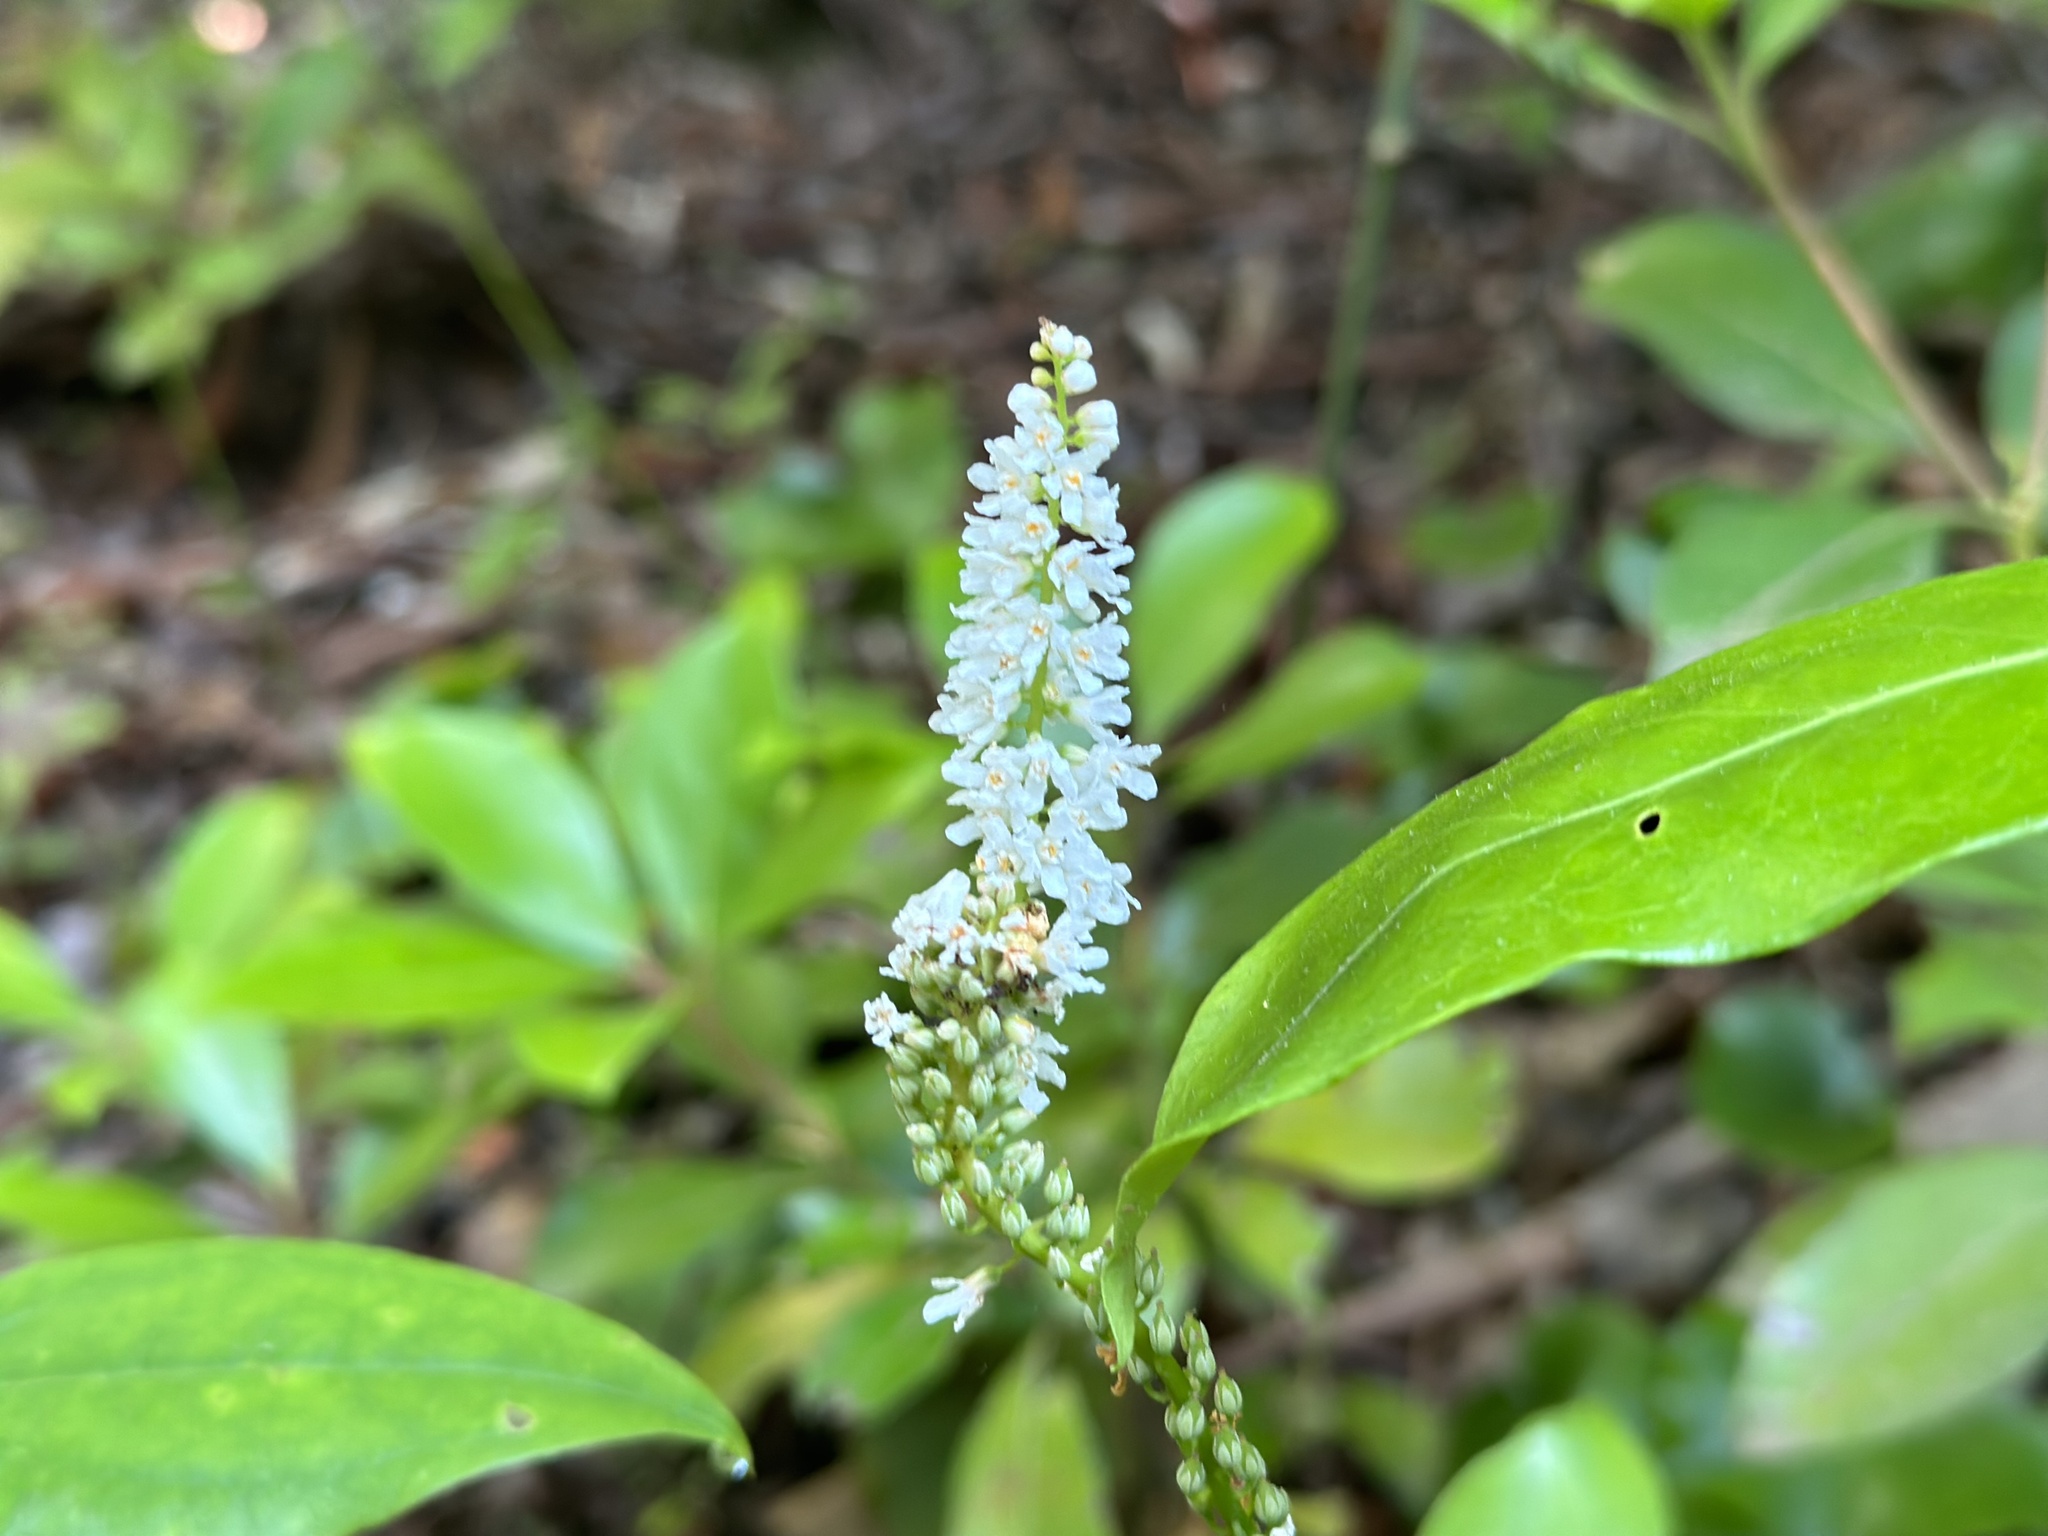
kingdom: Plantae
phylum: Tracheophyta
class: Magnoliopsida
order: Ericales
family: Diapensiaceae
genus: Galax
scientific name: Galax urceolata
